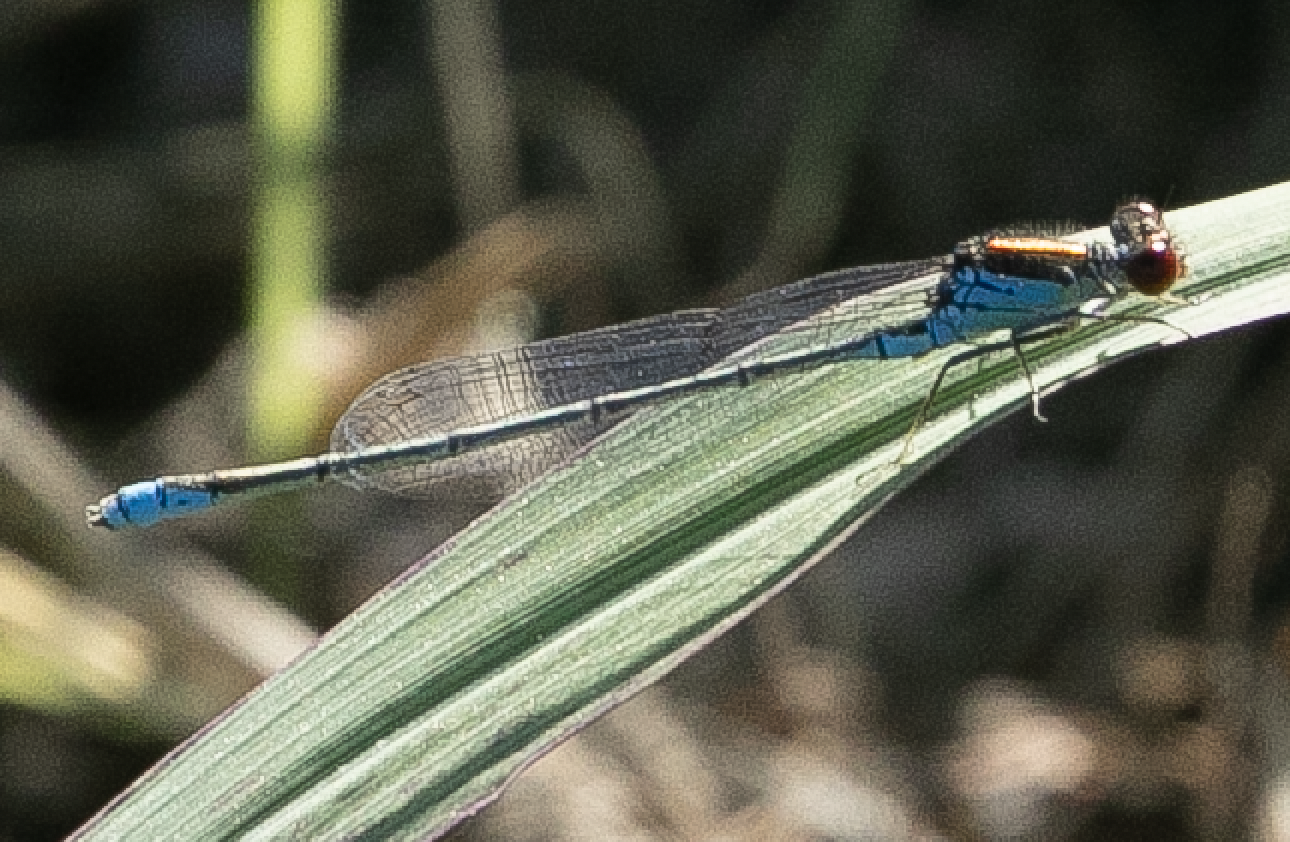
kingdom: Animalia
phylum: Arthropoda
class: Insecta
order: Odonata
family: Coenagrionidae
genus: Erythromma
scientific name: Erythromma viridulum
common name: Small red-eyed damselfly
